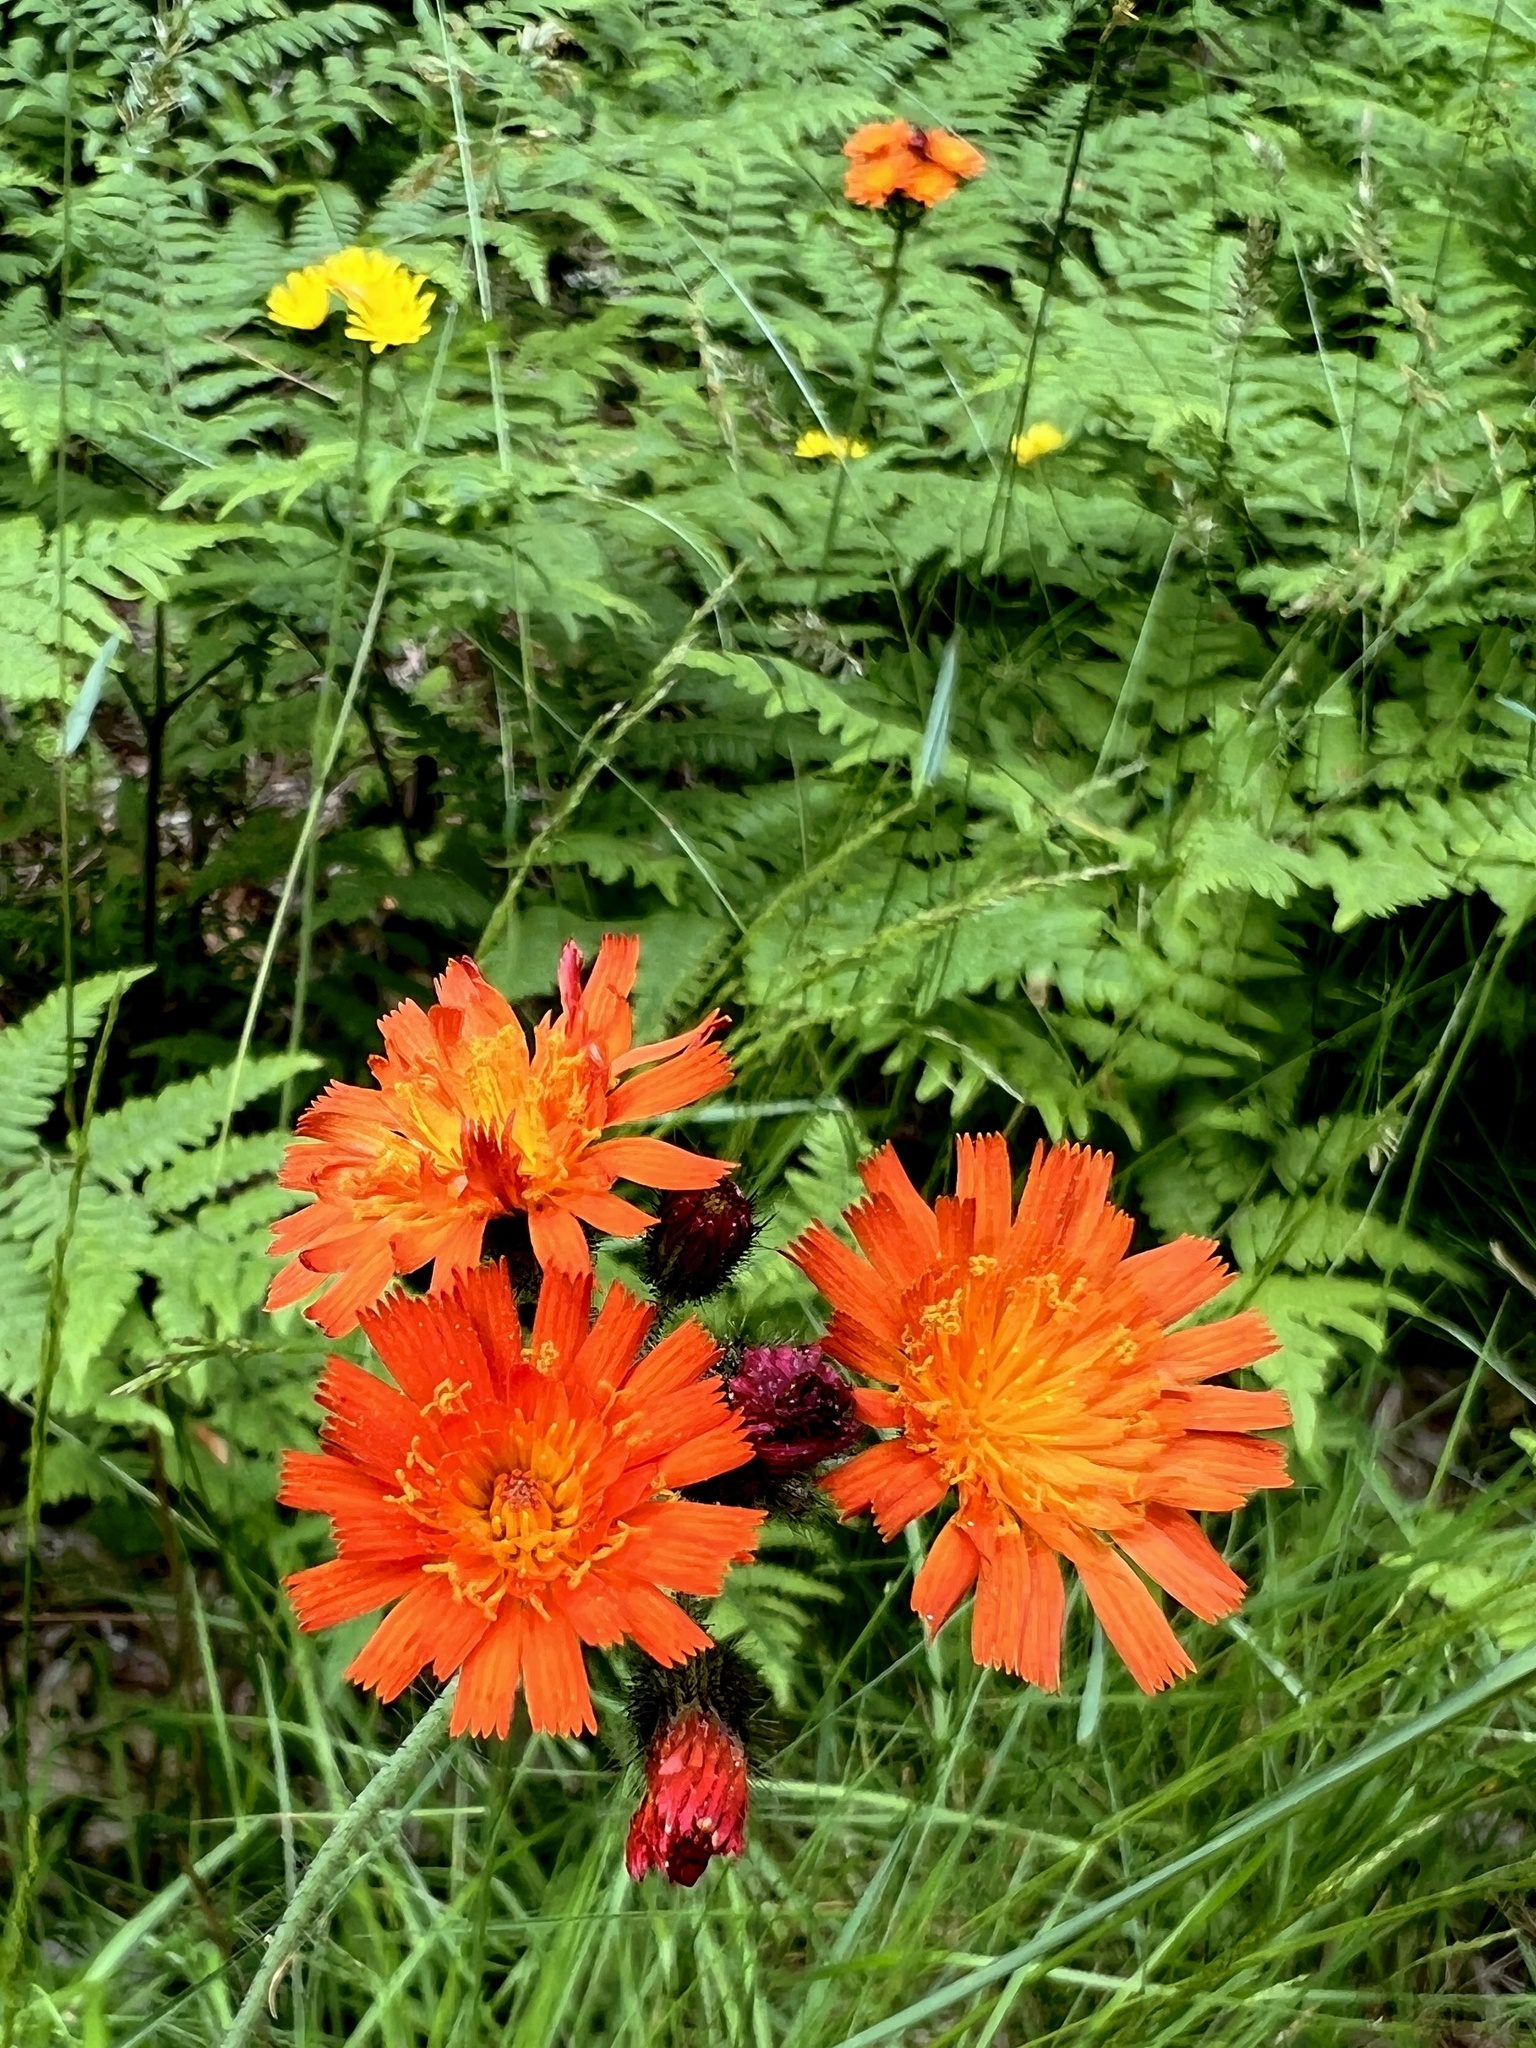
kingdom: Plantae
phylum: Tracheophyta
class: Magnoliopsida
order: Asterales
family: Asteraceae
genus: Pilosella
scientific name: Pilosella aurantiaca
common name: Fox-and-cubs
